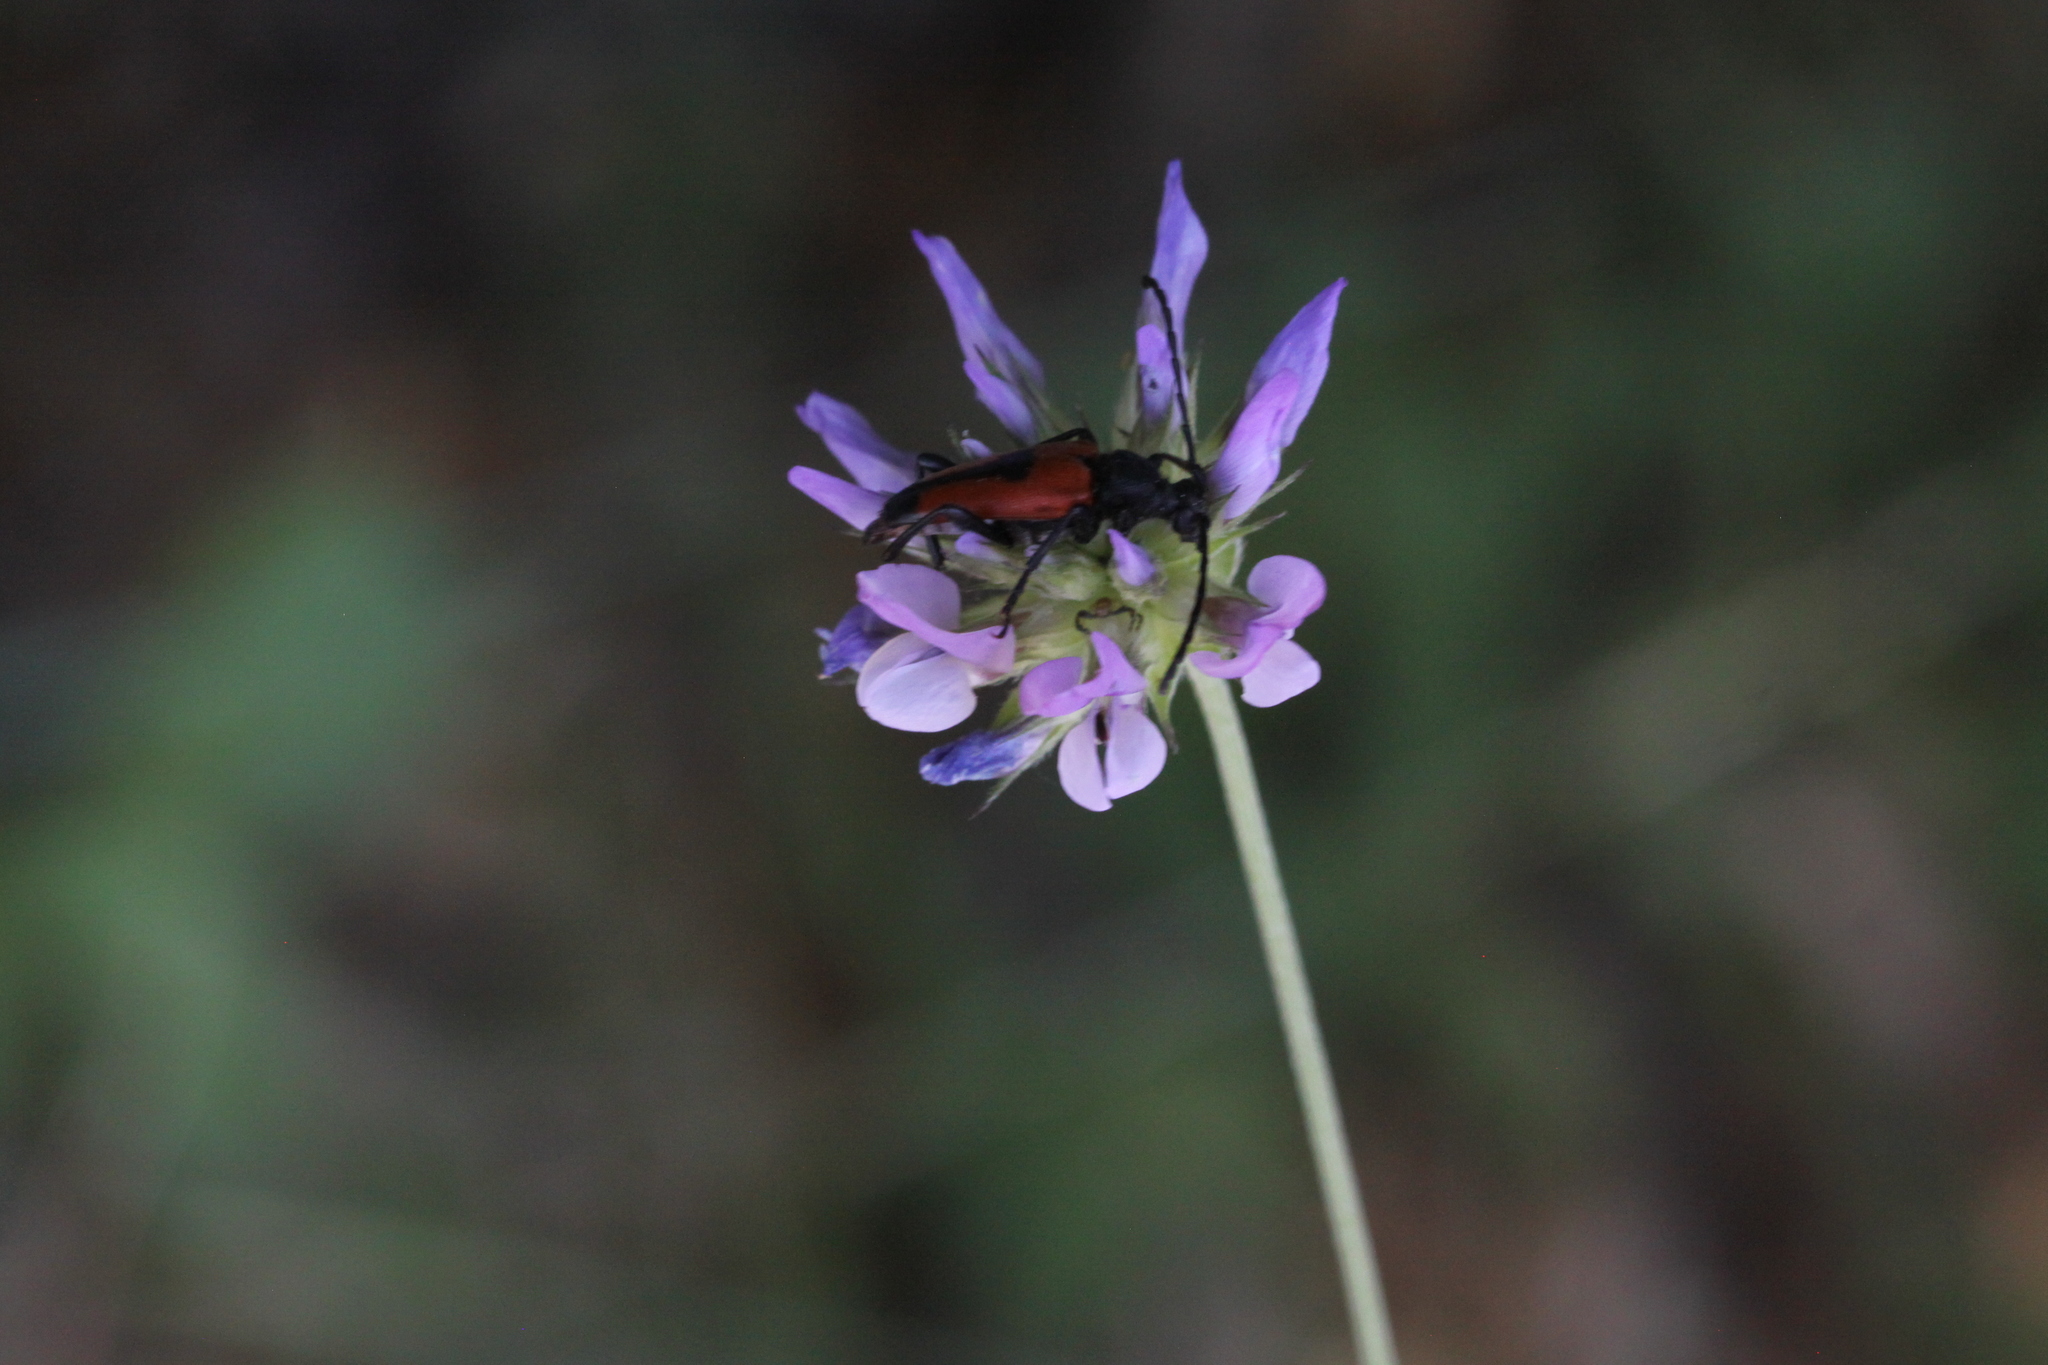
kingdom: Animalia
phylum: Arthropoda
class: Insecta
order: Coleoptera
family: Cerambycidae
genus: Stictoleptura
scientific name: Stictoleptura cordigera
